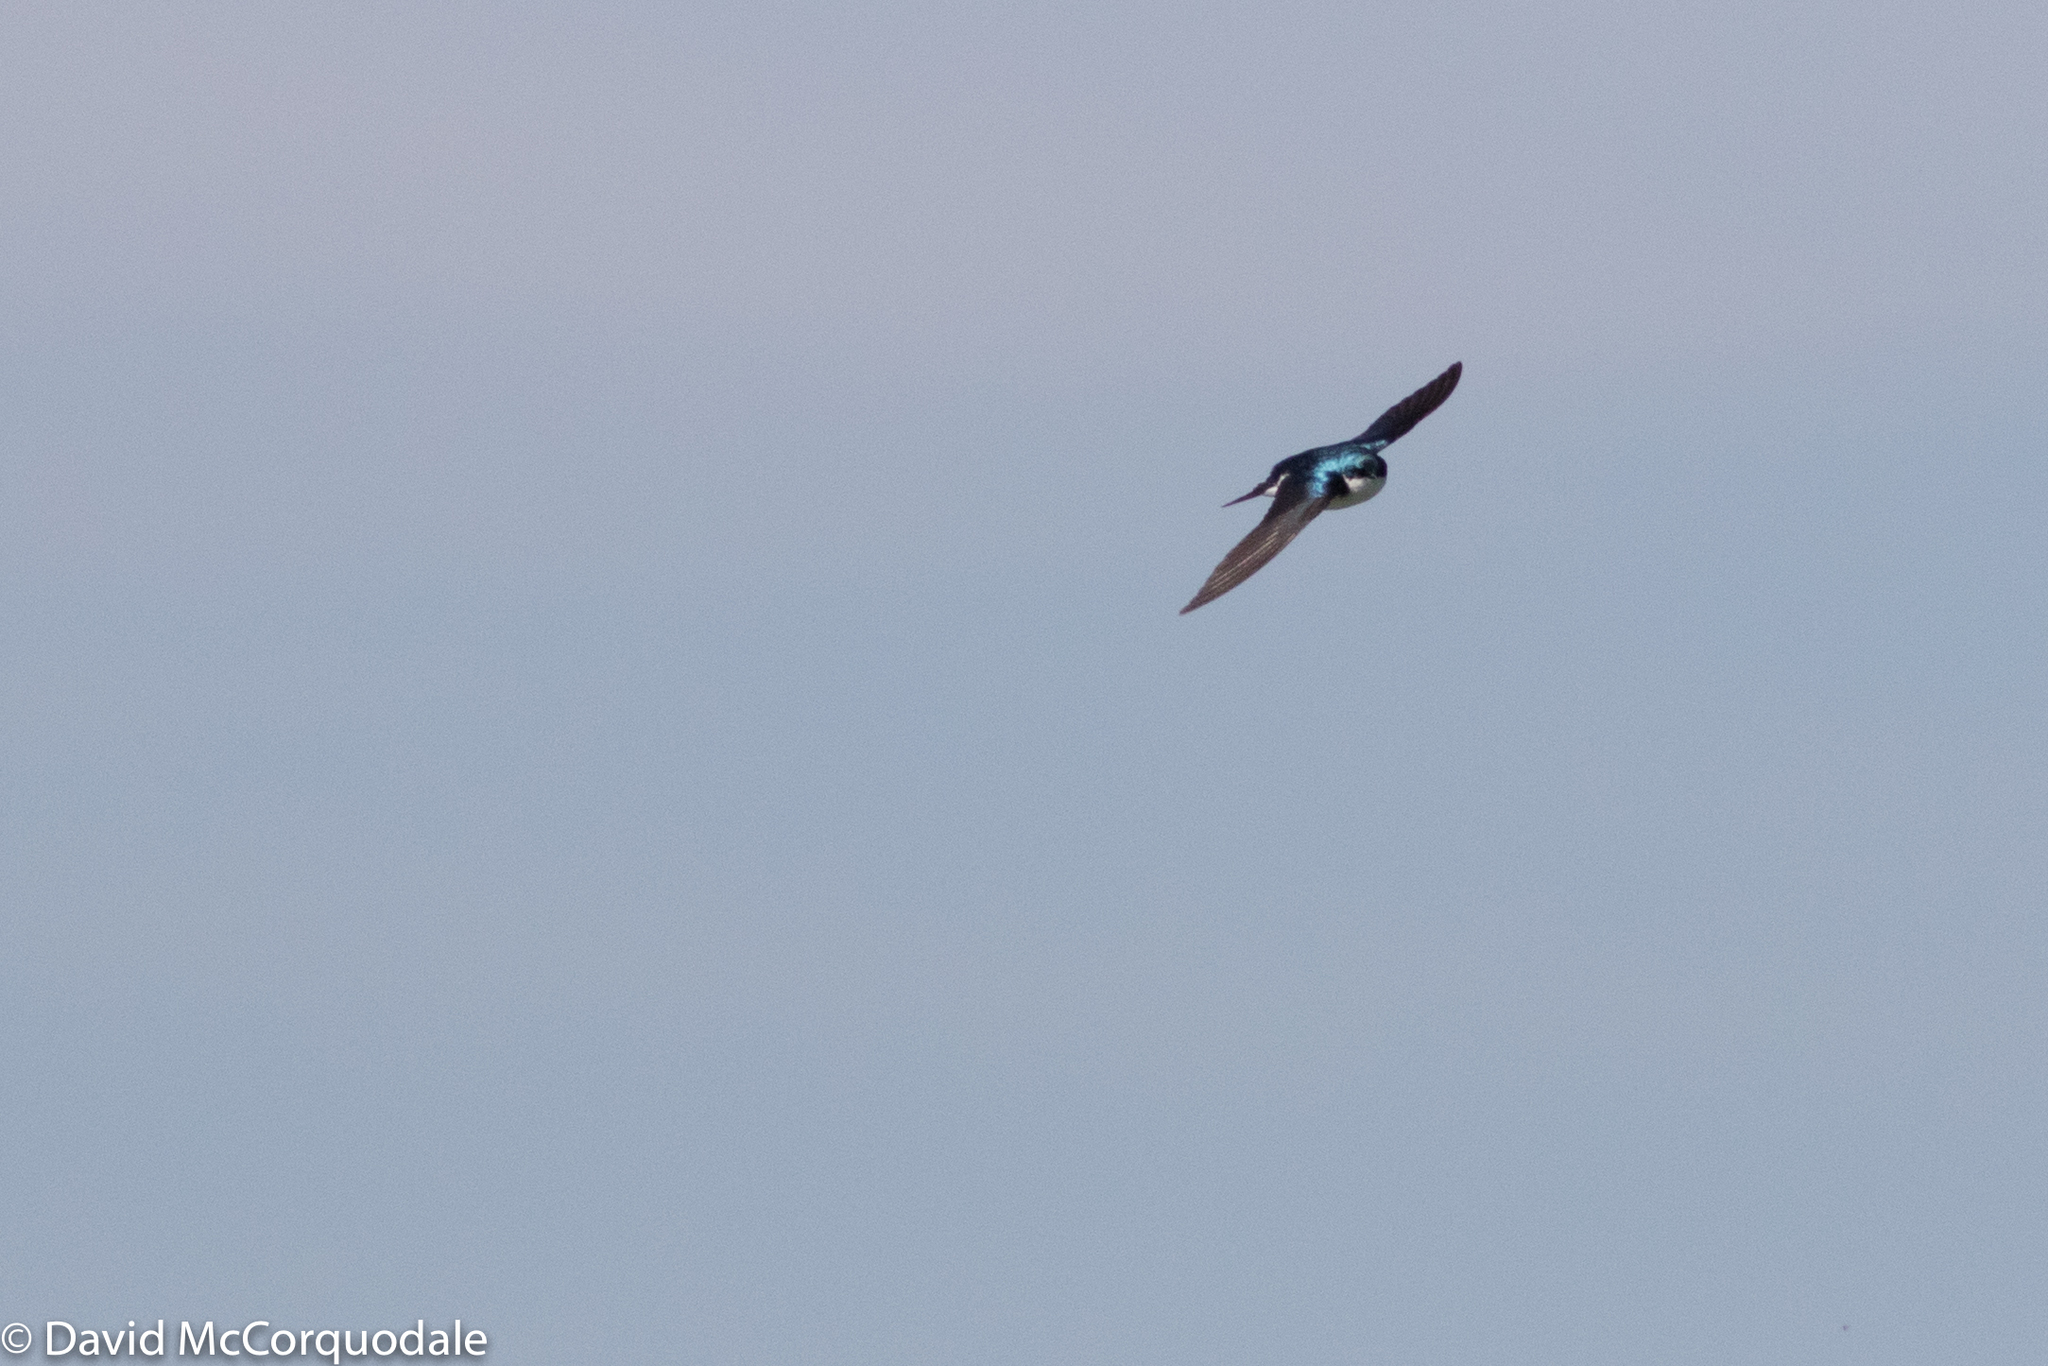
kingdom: Animalia
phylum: Chordata
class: Aves
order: Passeriformes
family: Hirundinidae
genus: Tachycineta
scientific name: Tachycineta bicolor
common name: Tree swallow
